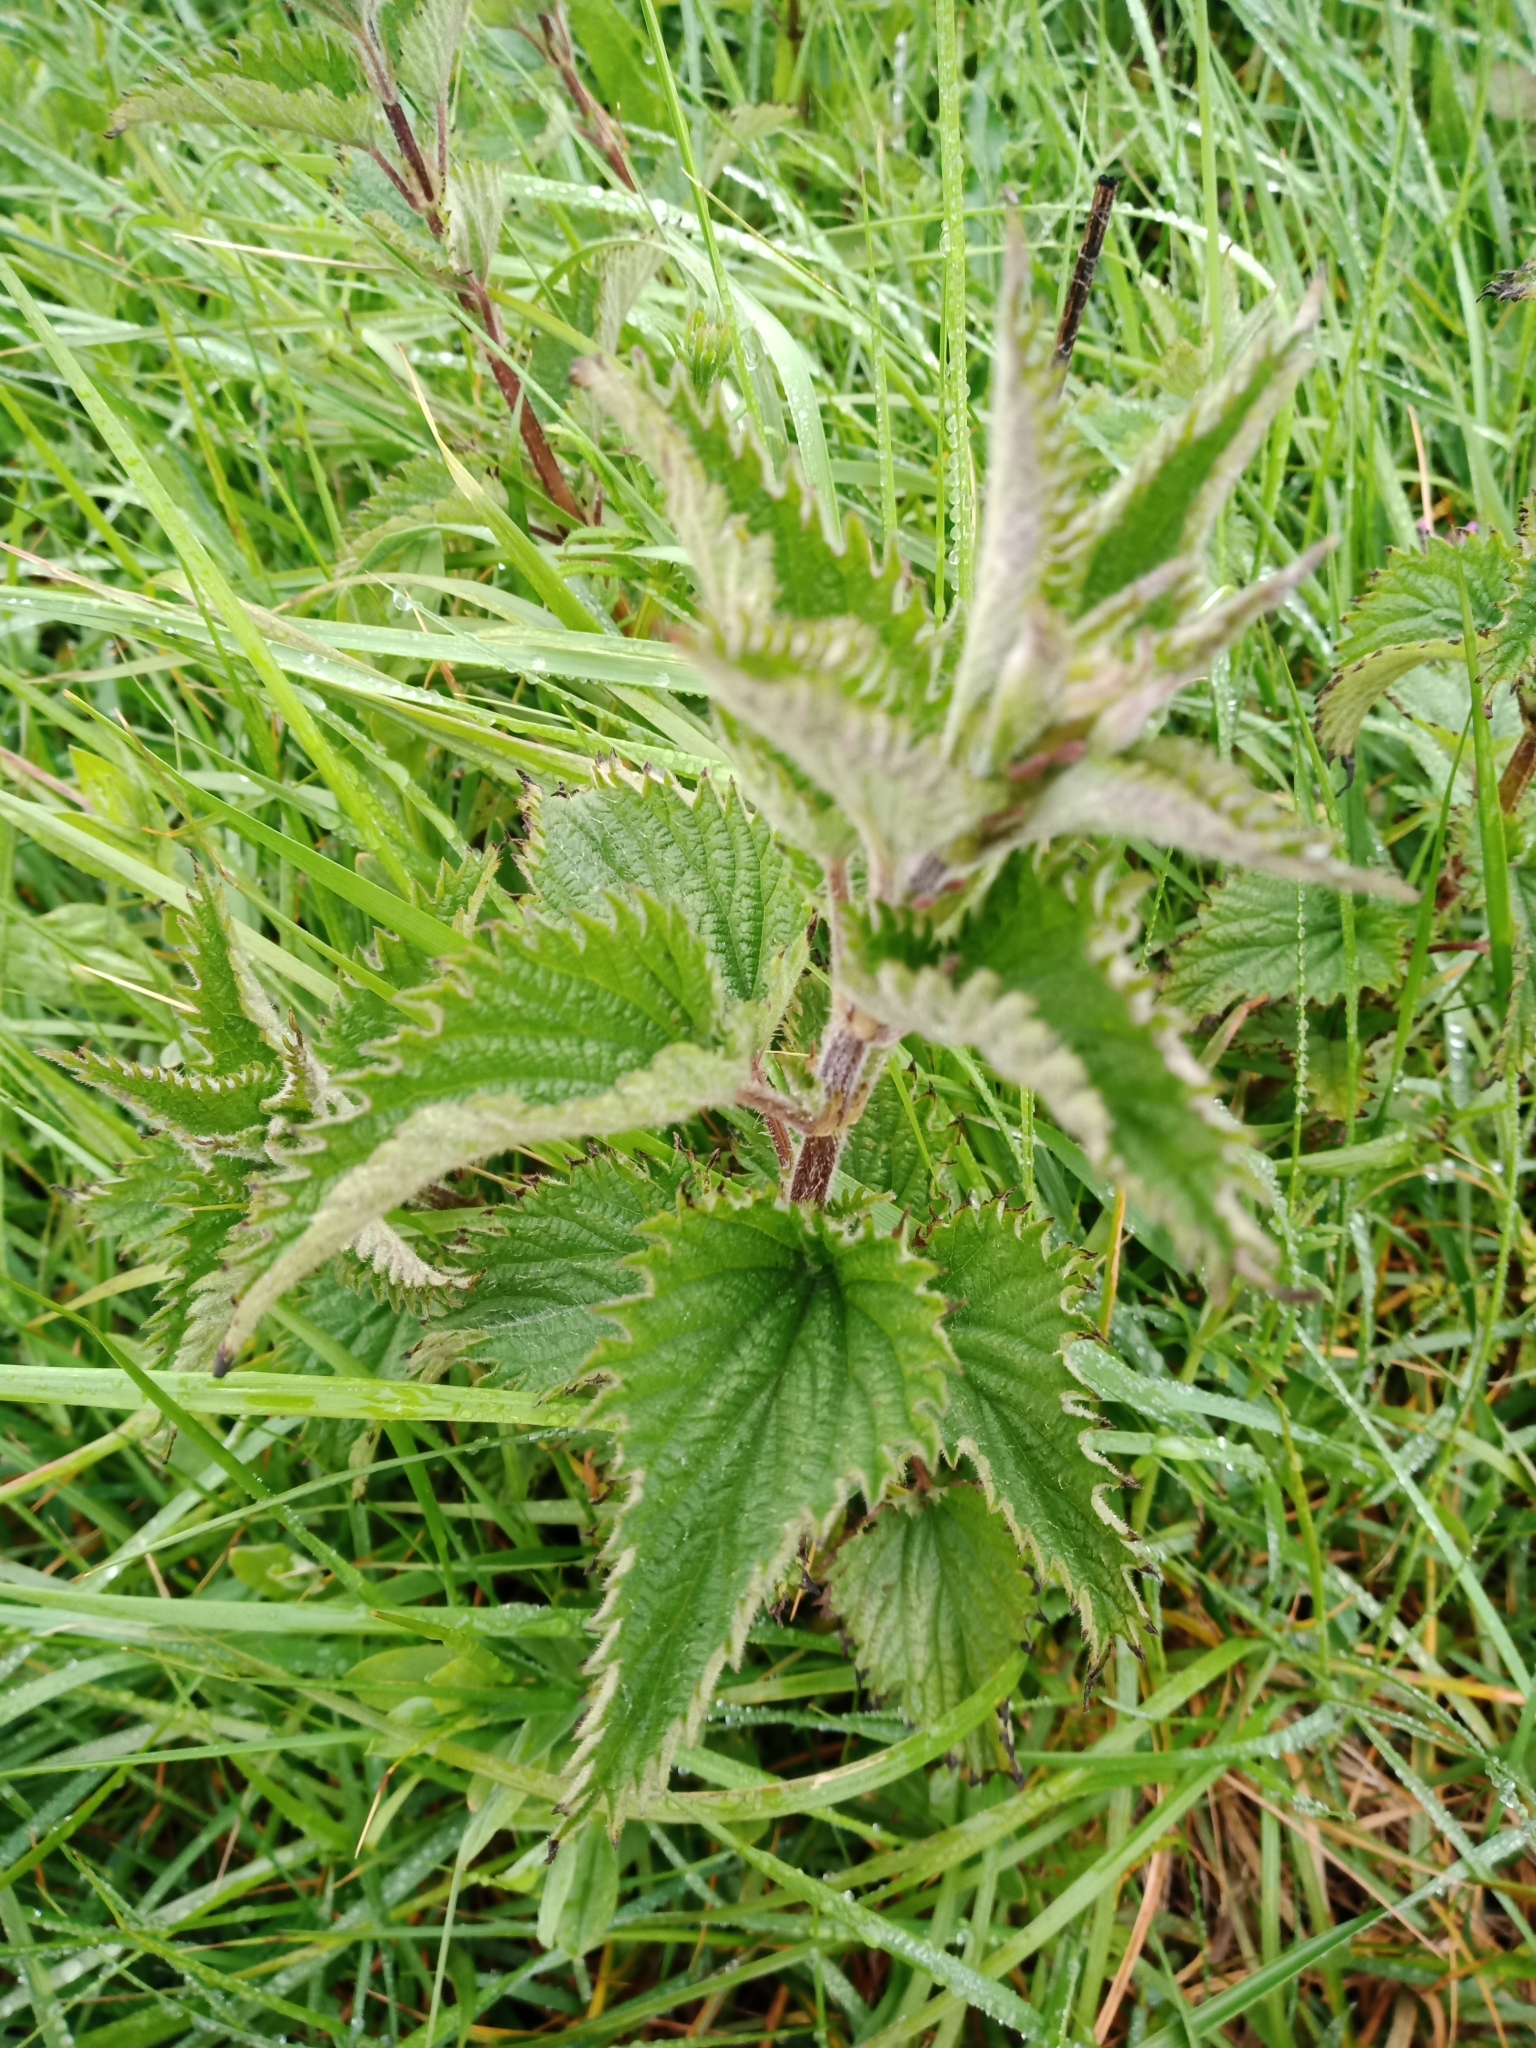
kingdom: Plantae
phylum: Tracheophyta
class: Magnoliopsida
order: Rosales
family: Urticaceae
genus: Urtica
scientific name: Urtica dioica
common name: Common nettle
